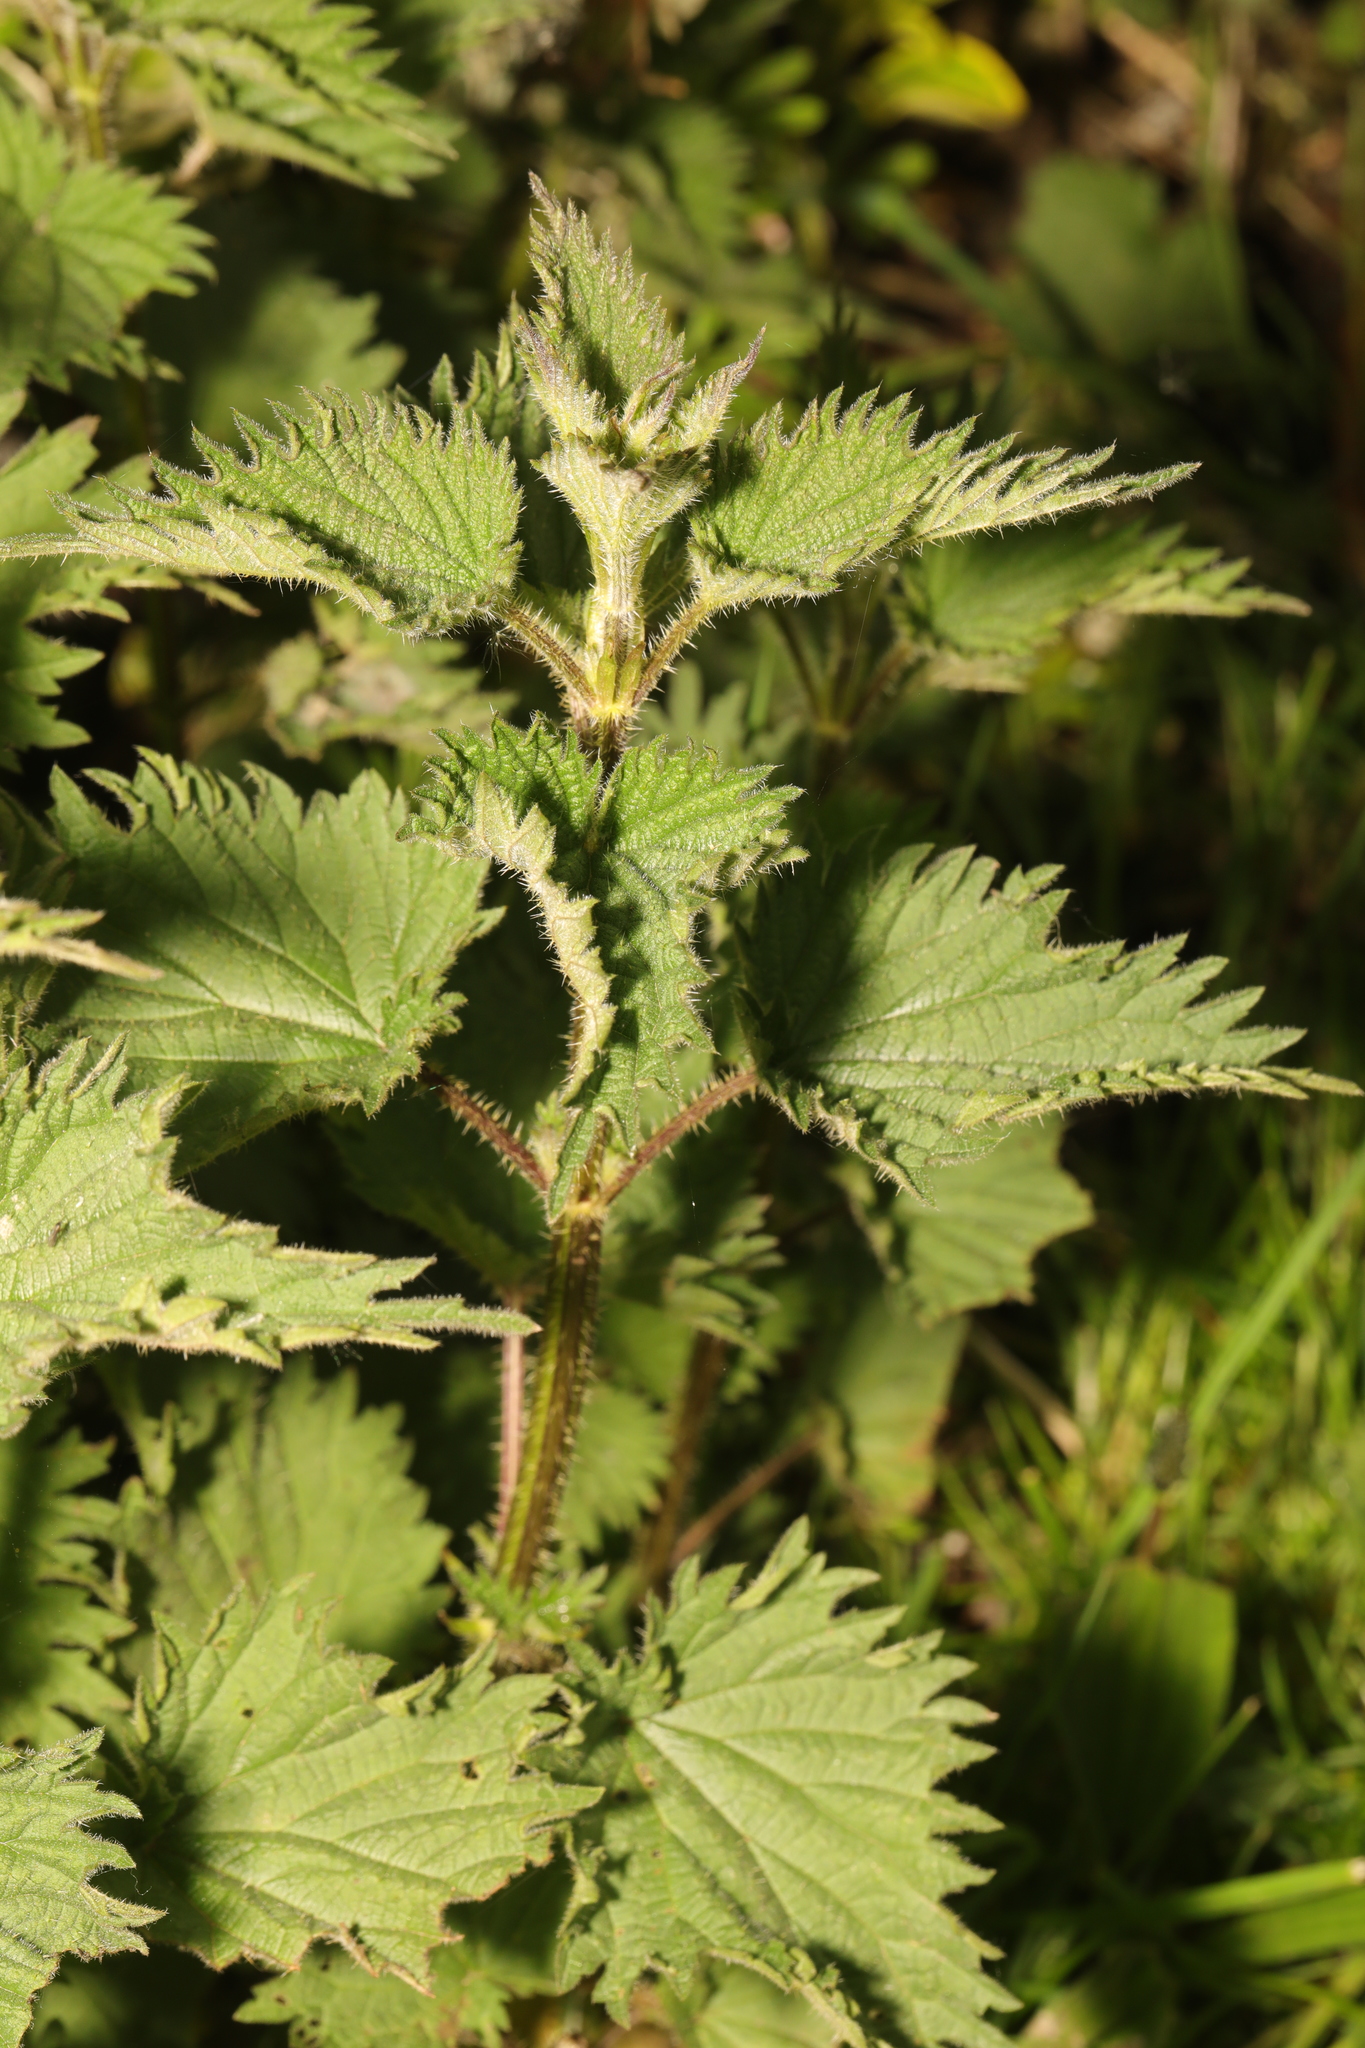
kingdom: Plantae
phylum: Tracheophyta
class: Magnoliopsida
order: Rosales
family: Urticaceae
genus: Urtica
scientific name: Urtica dioica
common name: Common nettle
